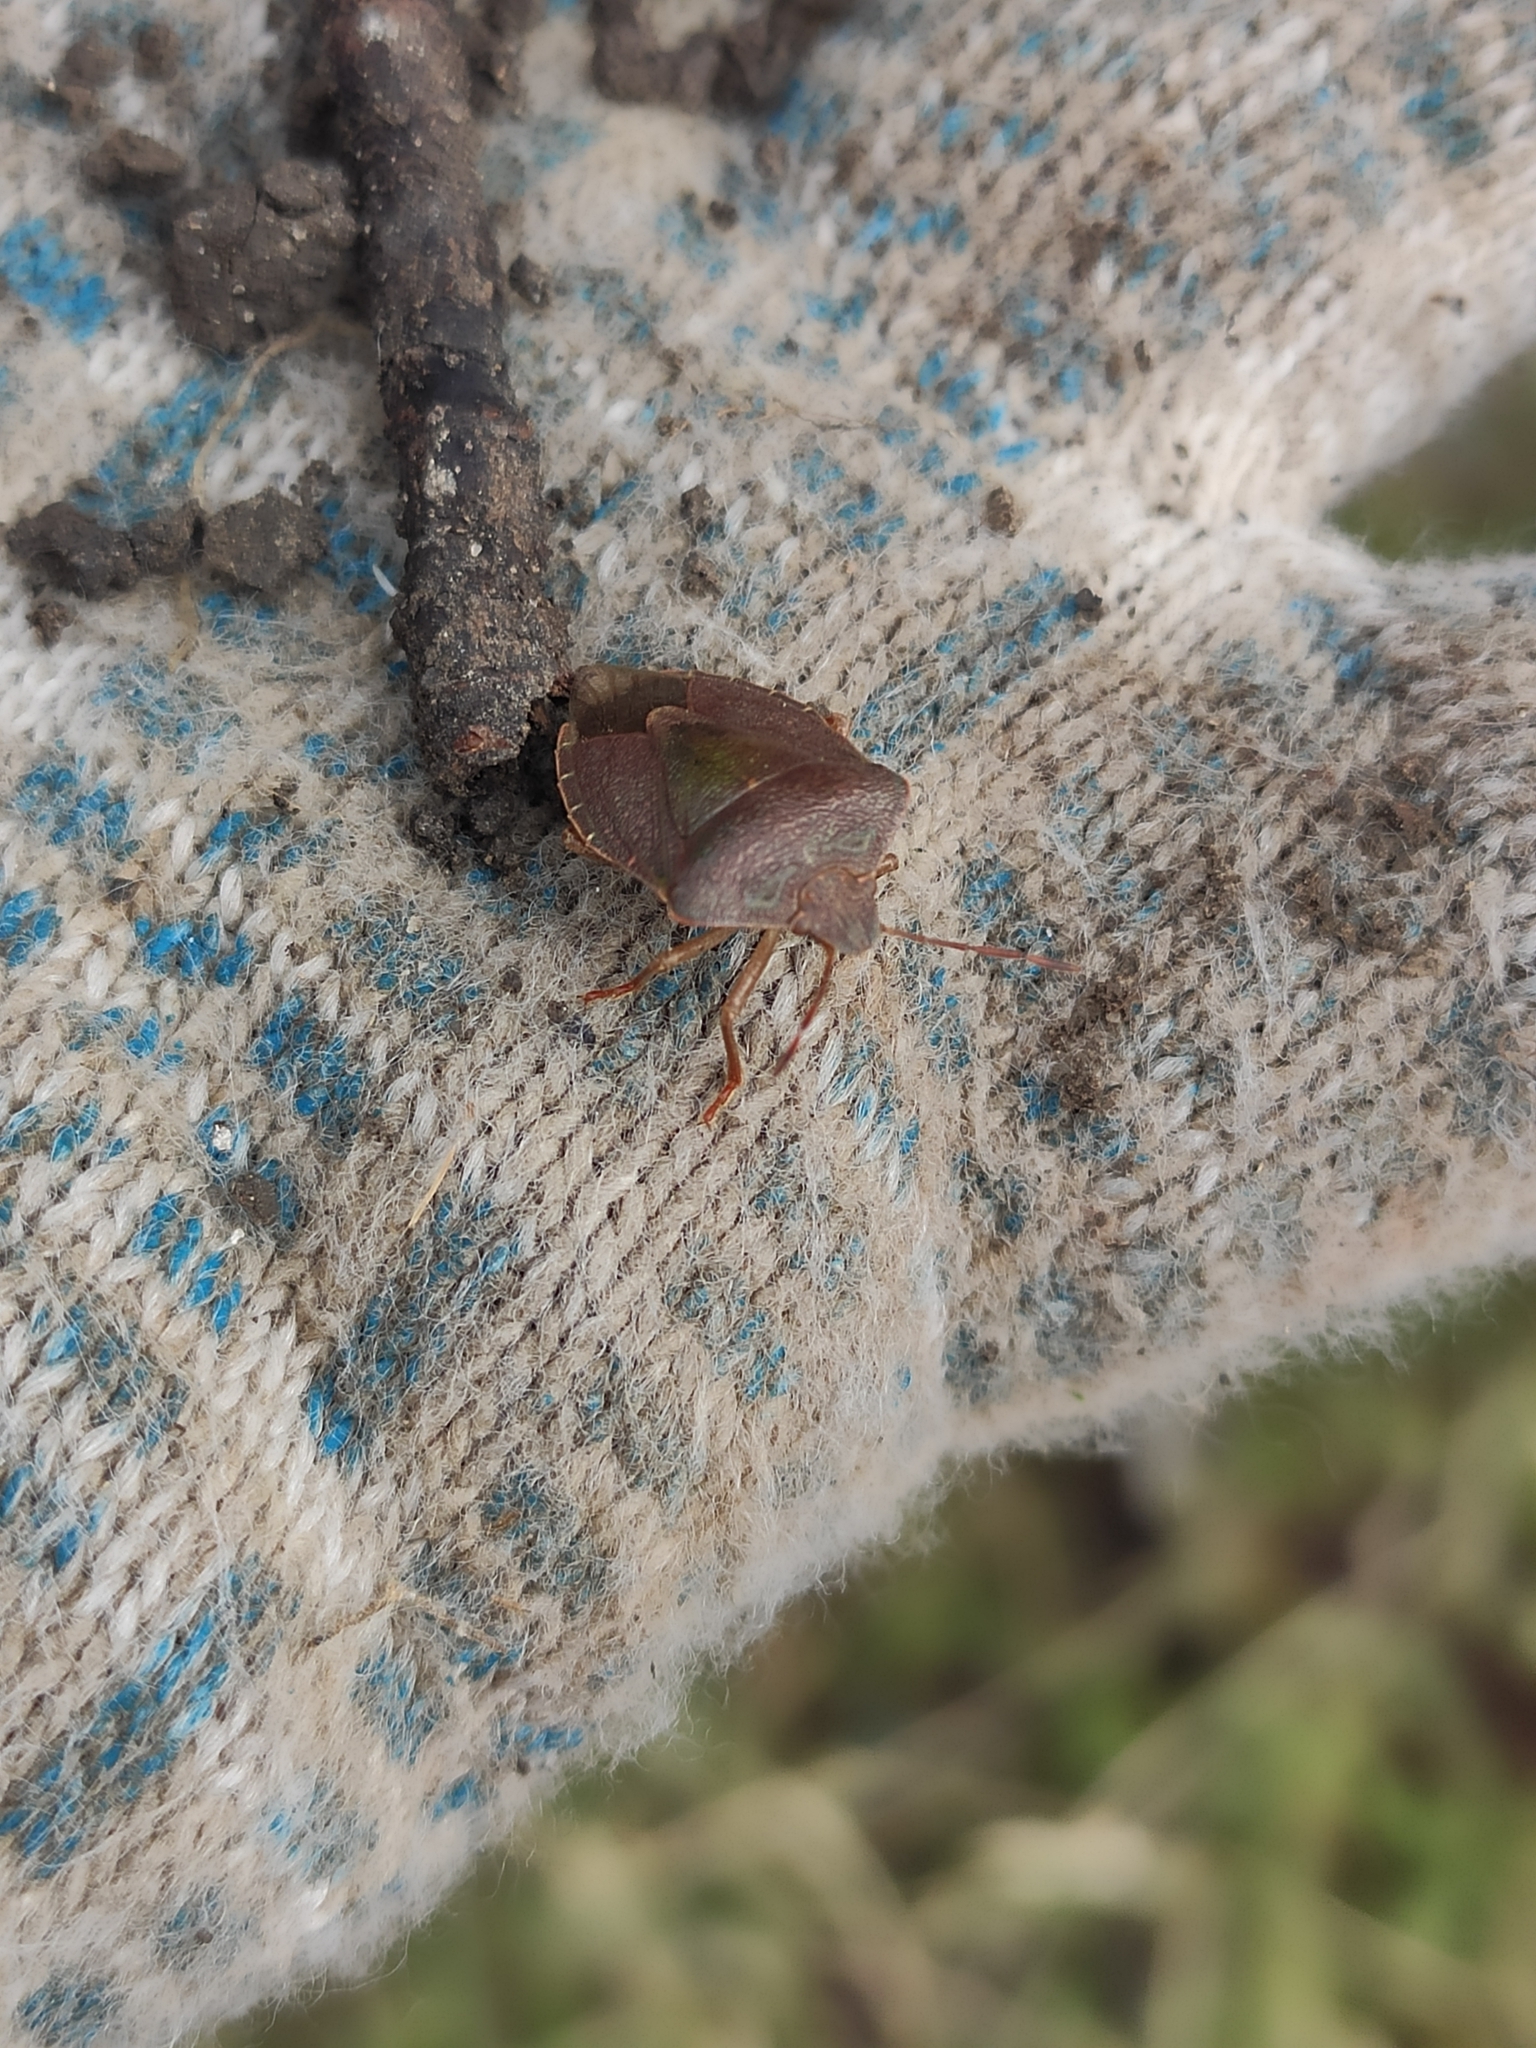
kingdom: Animalia
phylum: Arthropoda
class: Insecta
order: Hemiptera
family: Pentatomidae
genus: Palomena
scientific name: Palomena prasina
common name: Green shieldbug
